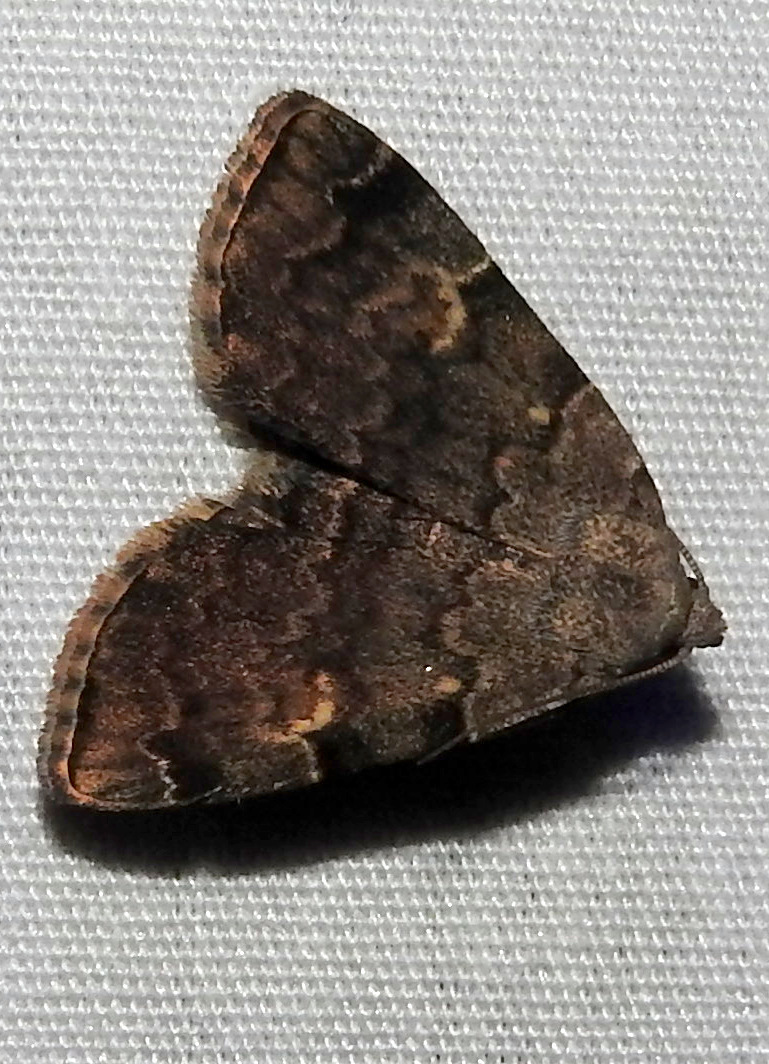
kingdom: Animalia
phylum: Arthropoda
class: Insecta
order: Lepidoptera
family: Erebidae
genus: Idia
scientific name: Idia americalis
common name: American idia moth
